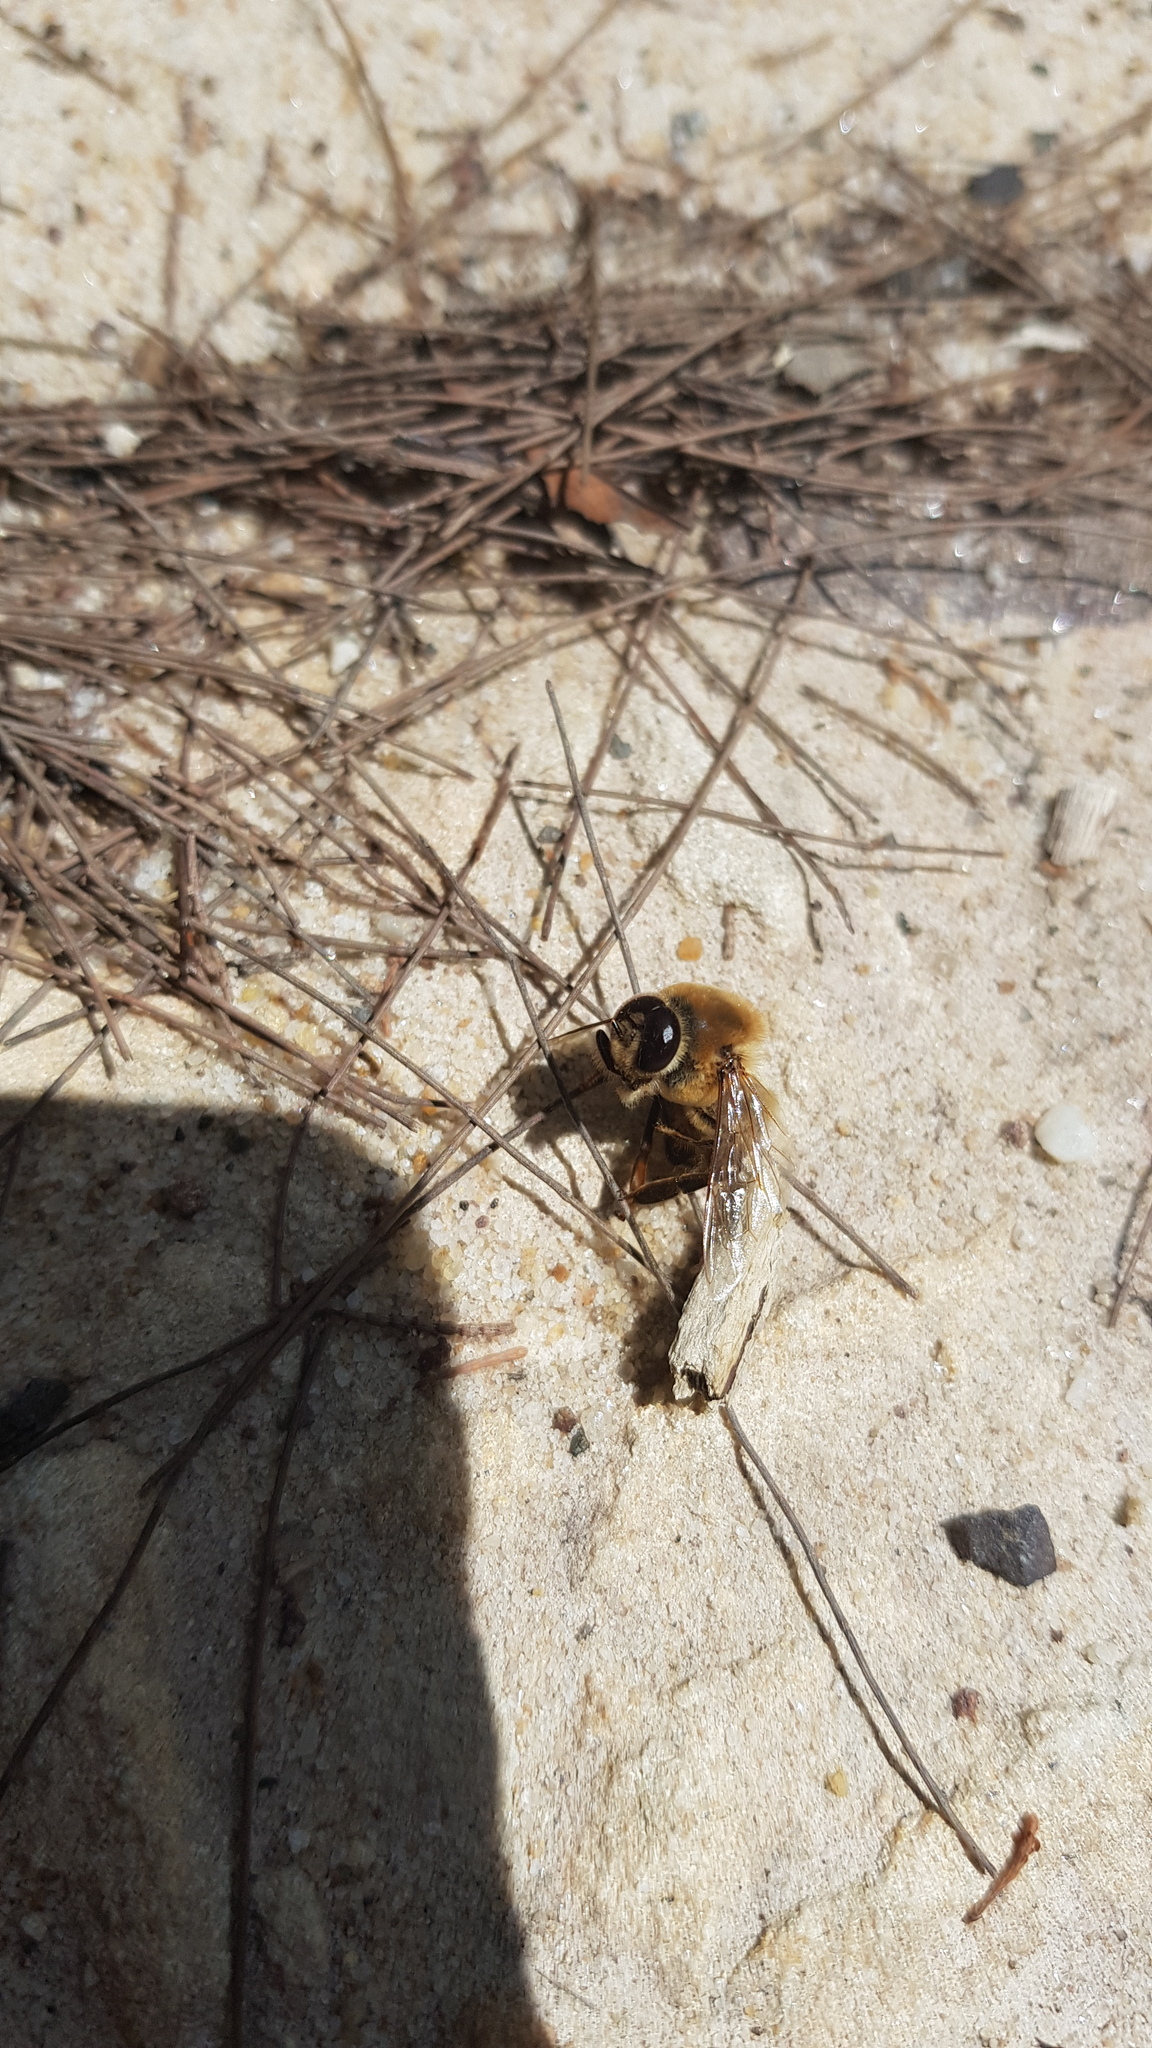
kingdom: Animalia
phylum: Arthropoda
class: Insecta
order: Hymenoptera
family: Apidae
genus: Apis
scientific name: Apis mellifera
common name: Honey bee
